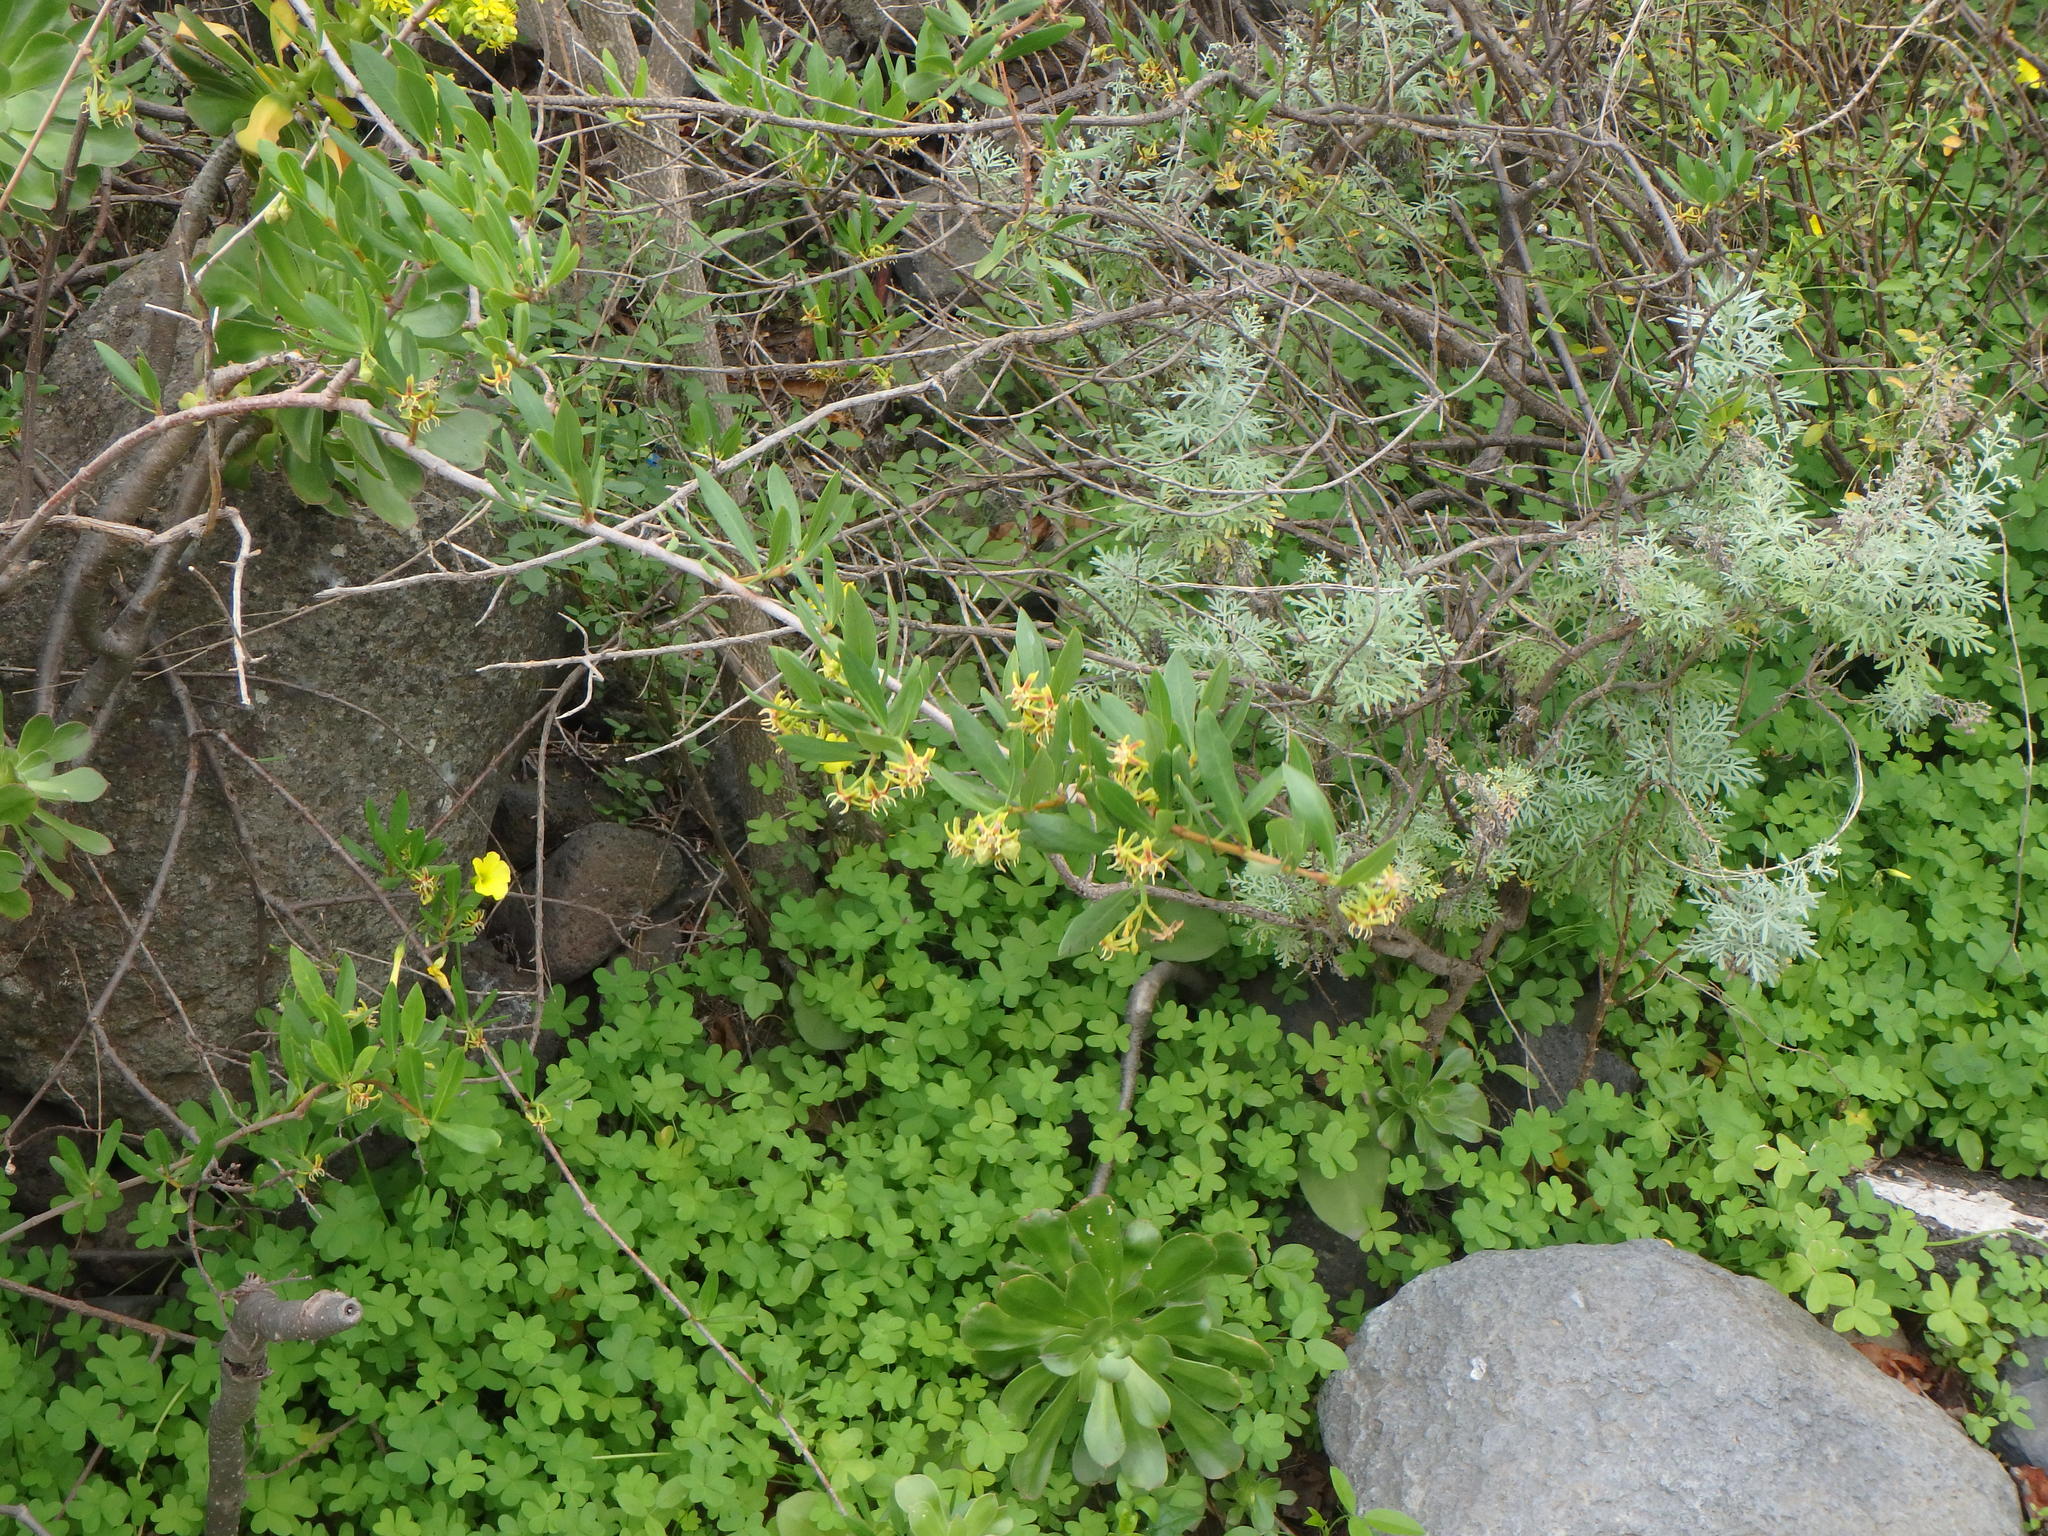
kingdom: Plantae
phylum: Tracheophyta
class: Magnoliopsida
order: Gentianales
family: Apocynaceae
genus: Periploca
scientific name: Periploca laevigata
